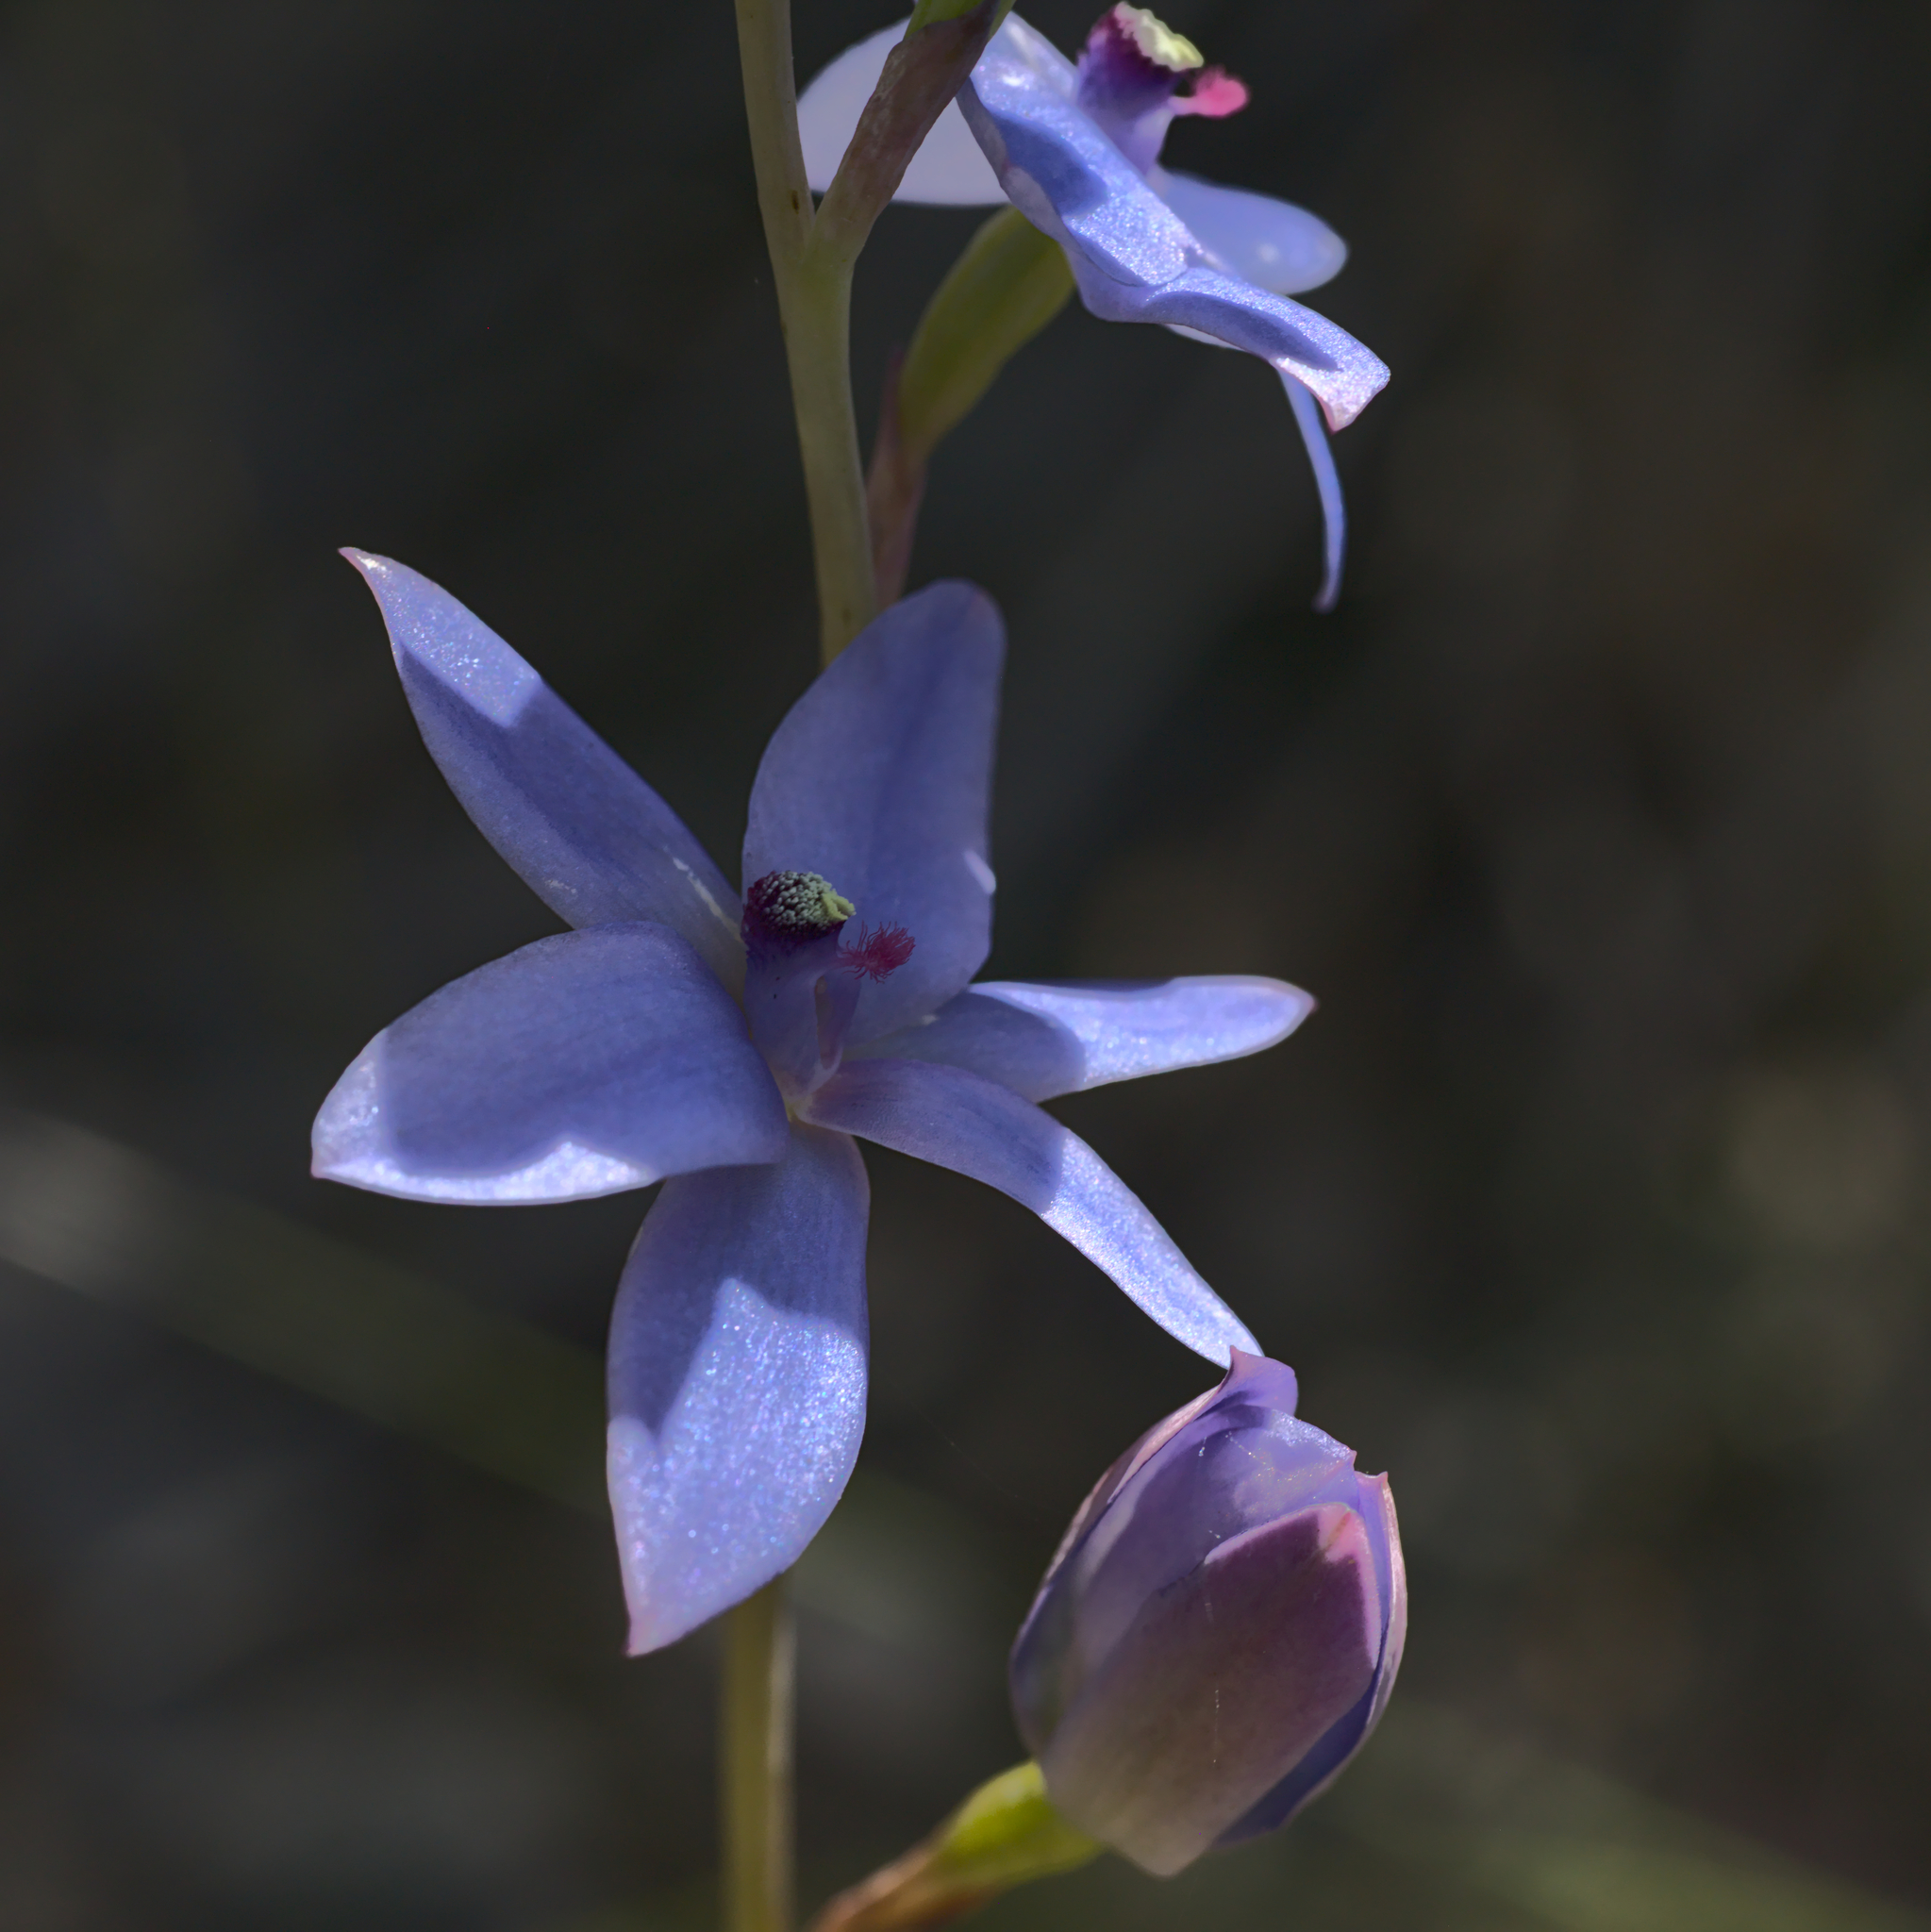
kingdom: Plantae
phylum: Tracheophyta
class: Liliopsida
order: Asparagales
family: Orchidaceae
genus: Thelymitra
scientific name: Thelymitra crinita
